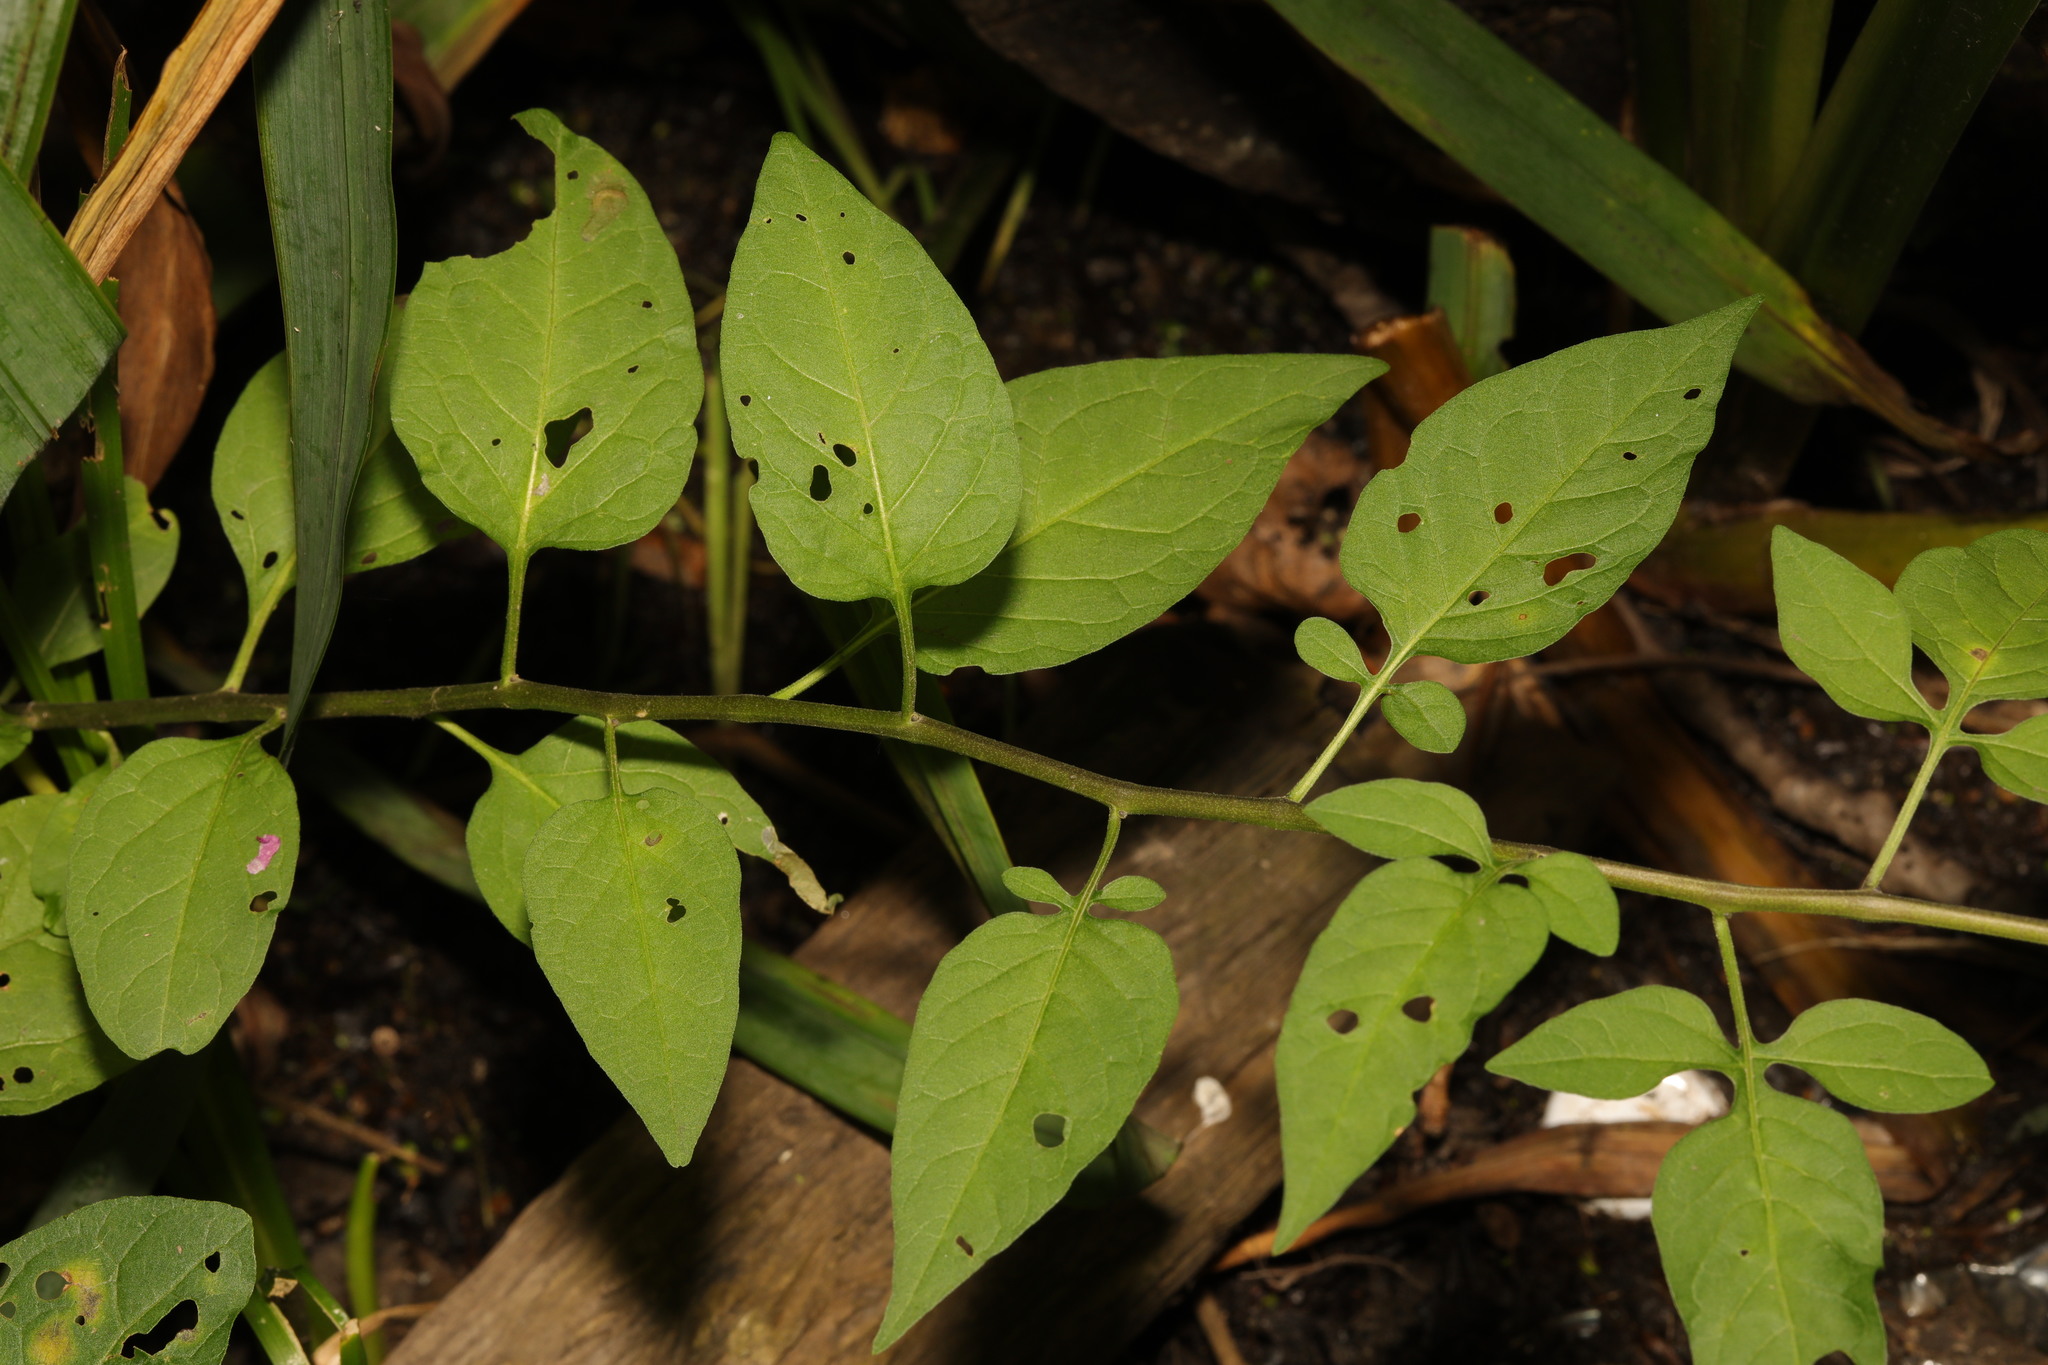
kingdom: Plantae
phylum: Tracheophyta
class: Magnoliopsida
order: Solanales
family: Solanaceae
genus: Solanum
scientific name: Solanum dulcamara
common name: Climbing nightshade
